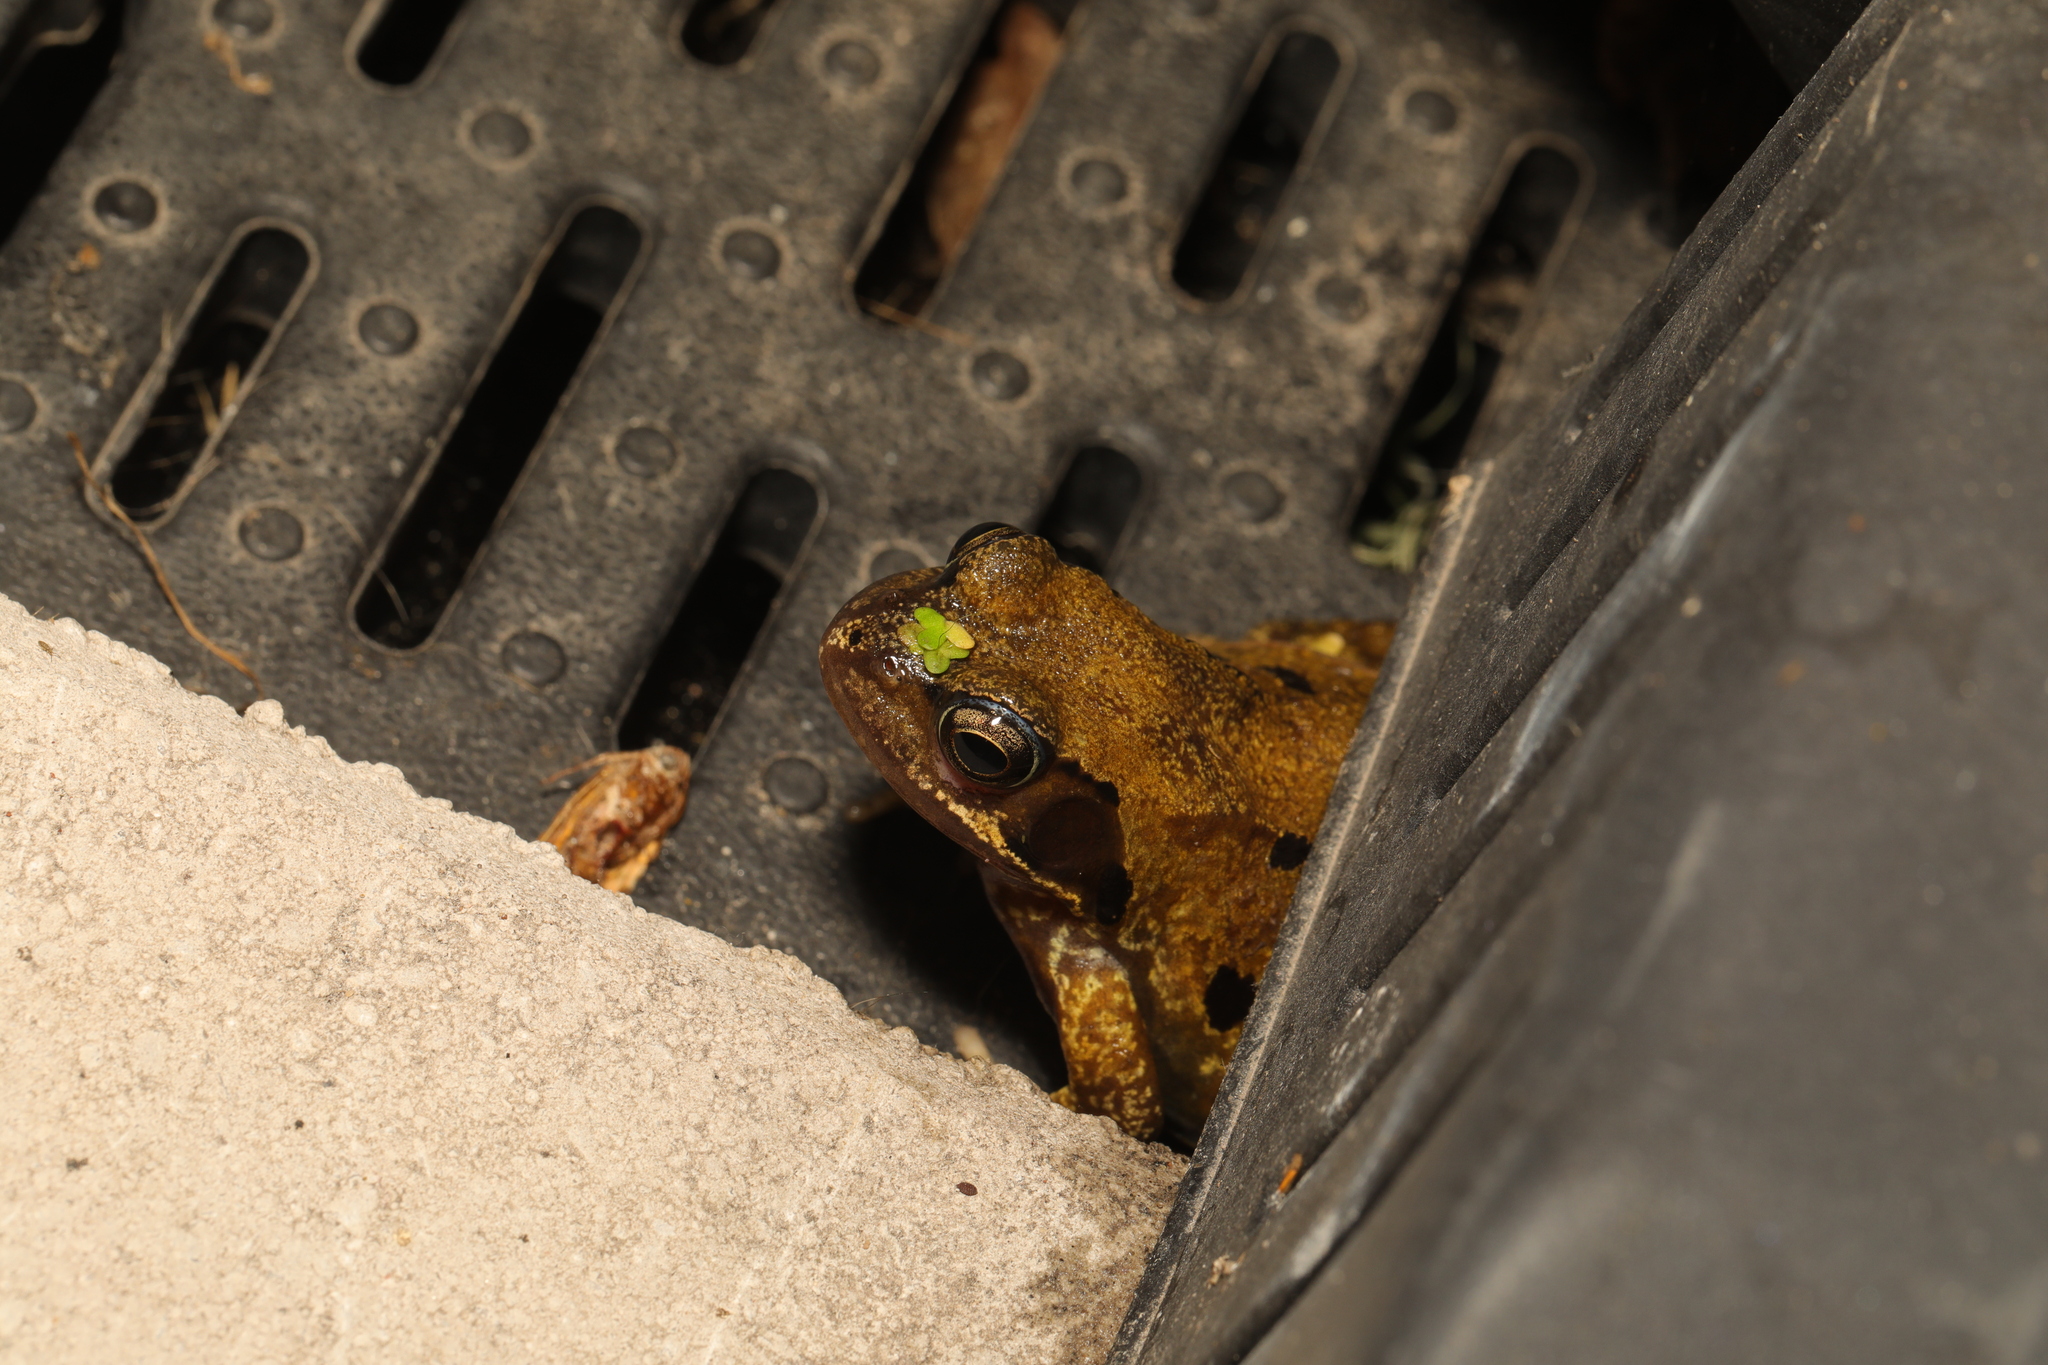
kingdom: Animalia
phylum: Chordata
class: Amphibia
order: Anura
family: Ranidae
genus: Rana
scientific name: Rana temporaria
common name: Common frog
